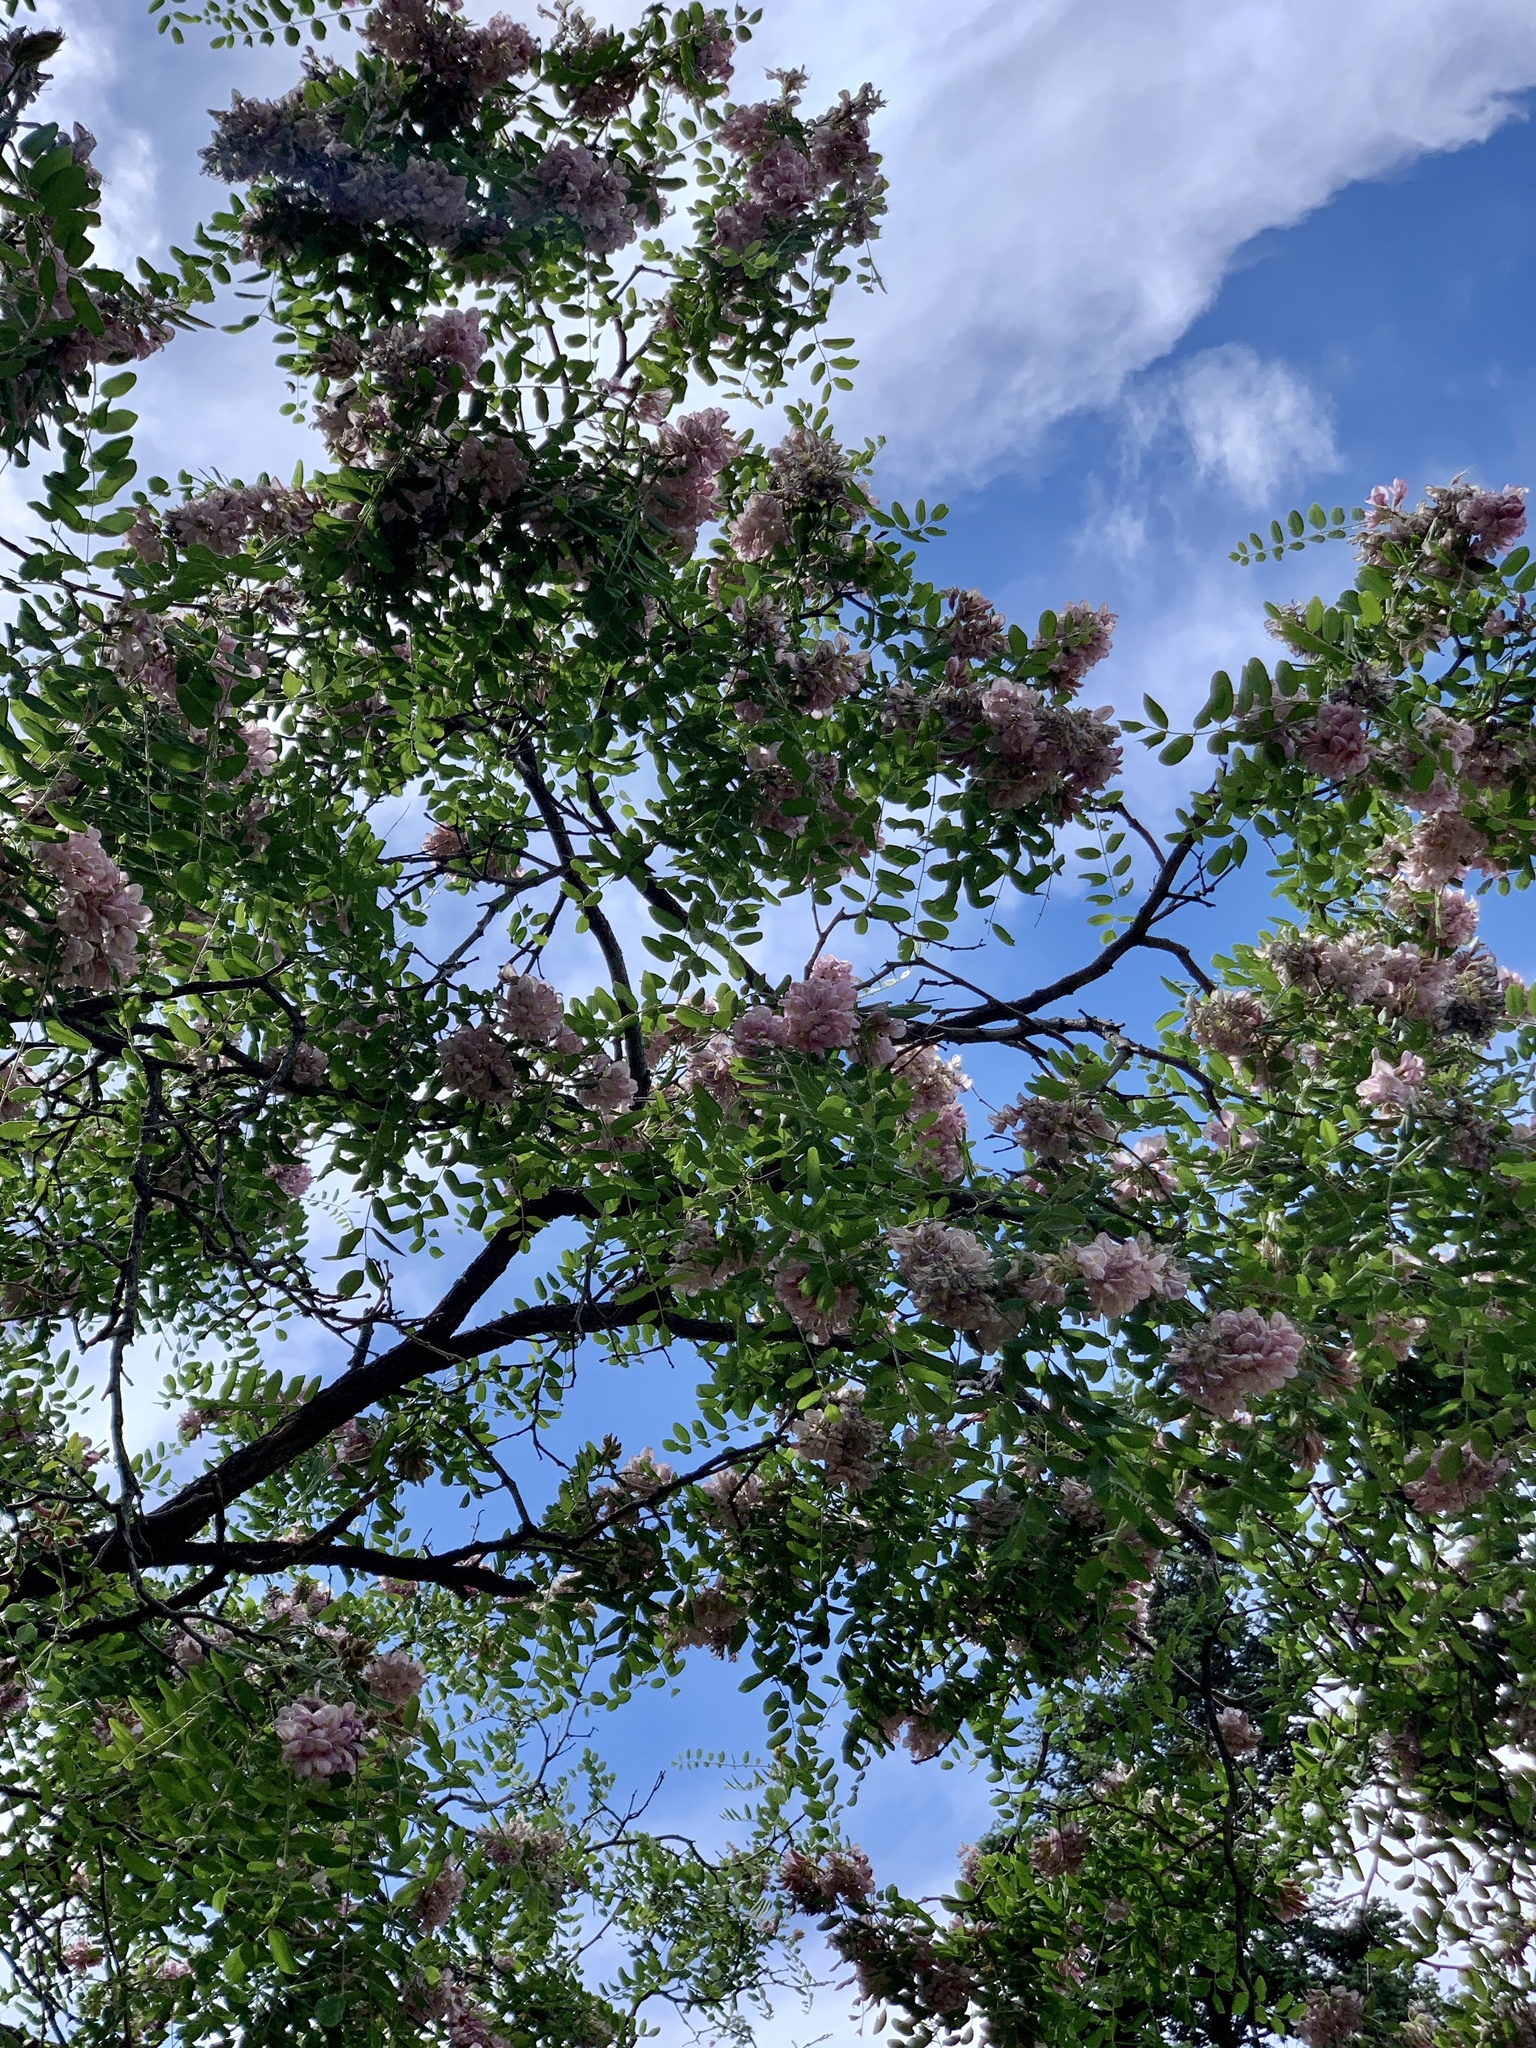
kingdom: Plantae
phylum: Tracheophyta
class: Magnoliopsida
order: Fabales
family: Fabaceae
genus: Robinia
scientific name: Robinia neomexicana
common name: New mexico locust
